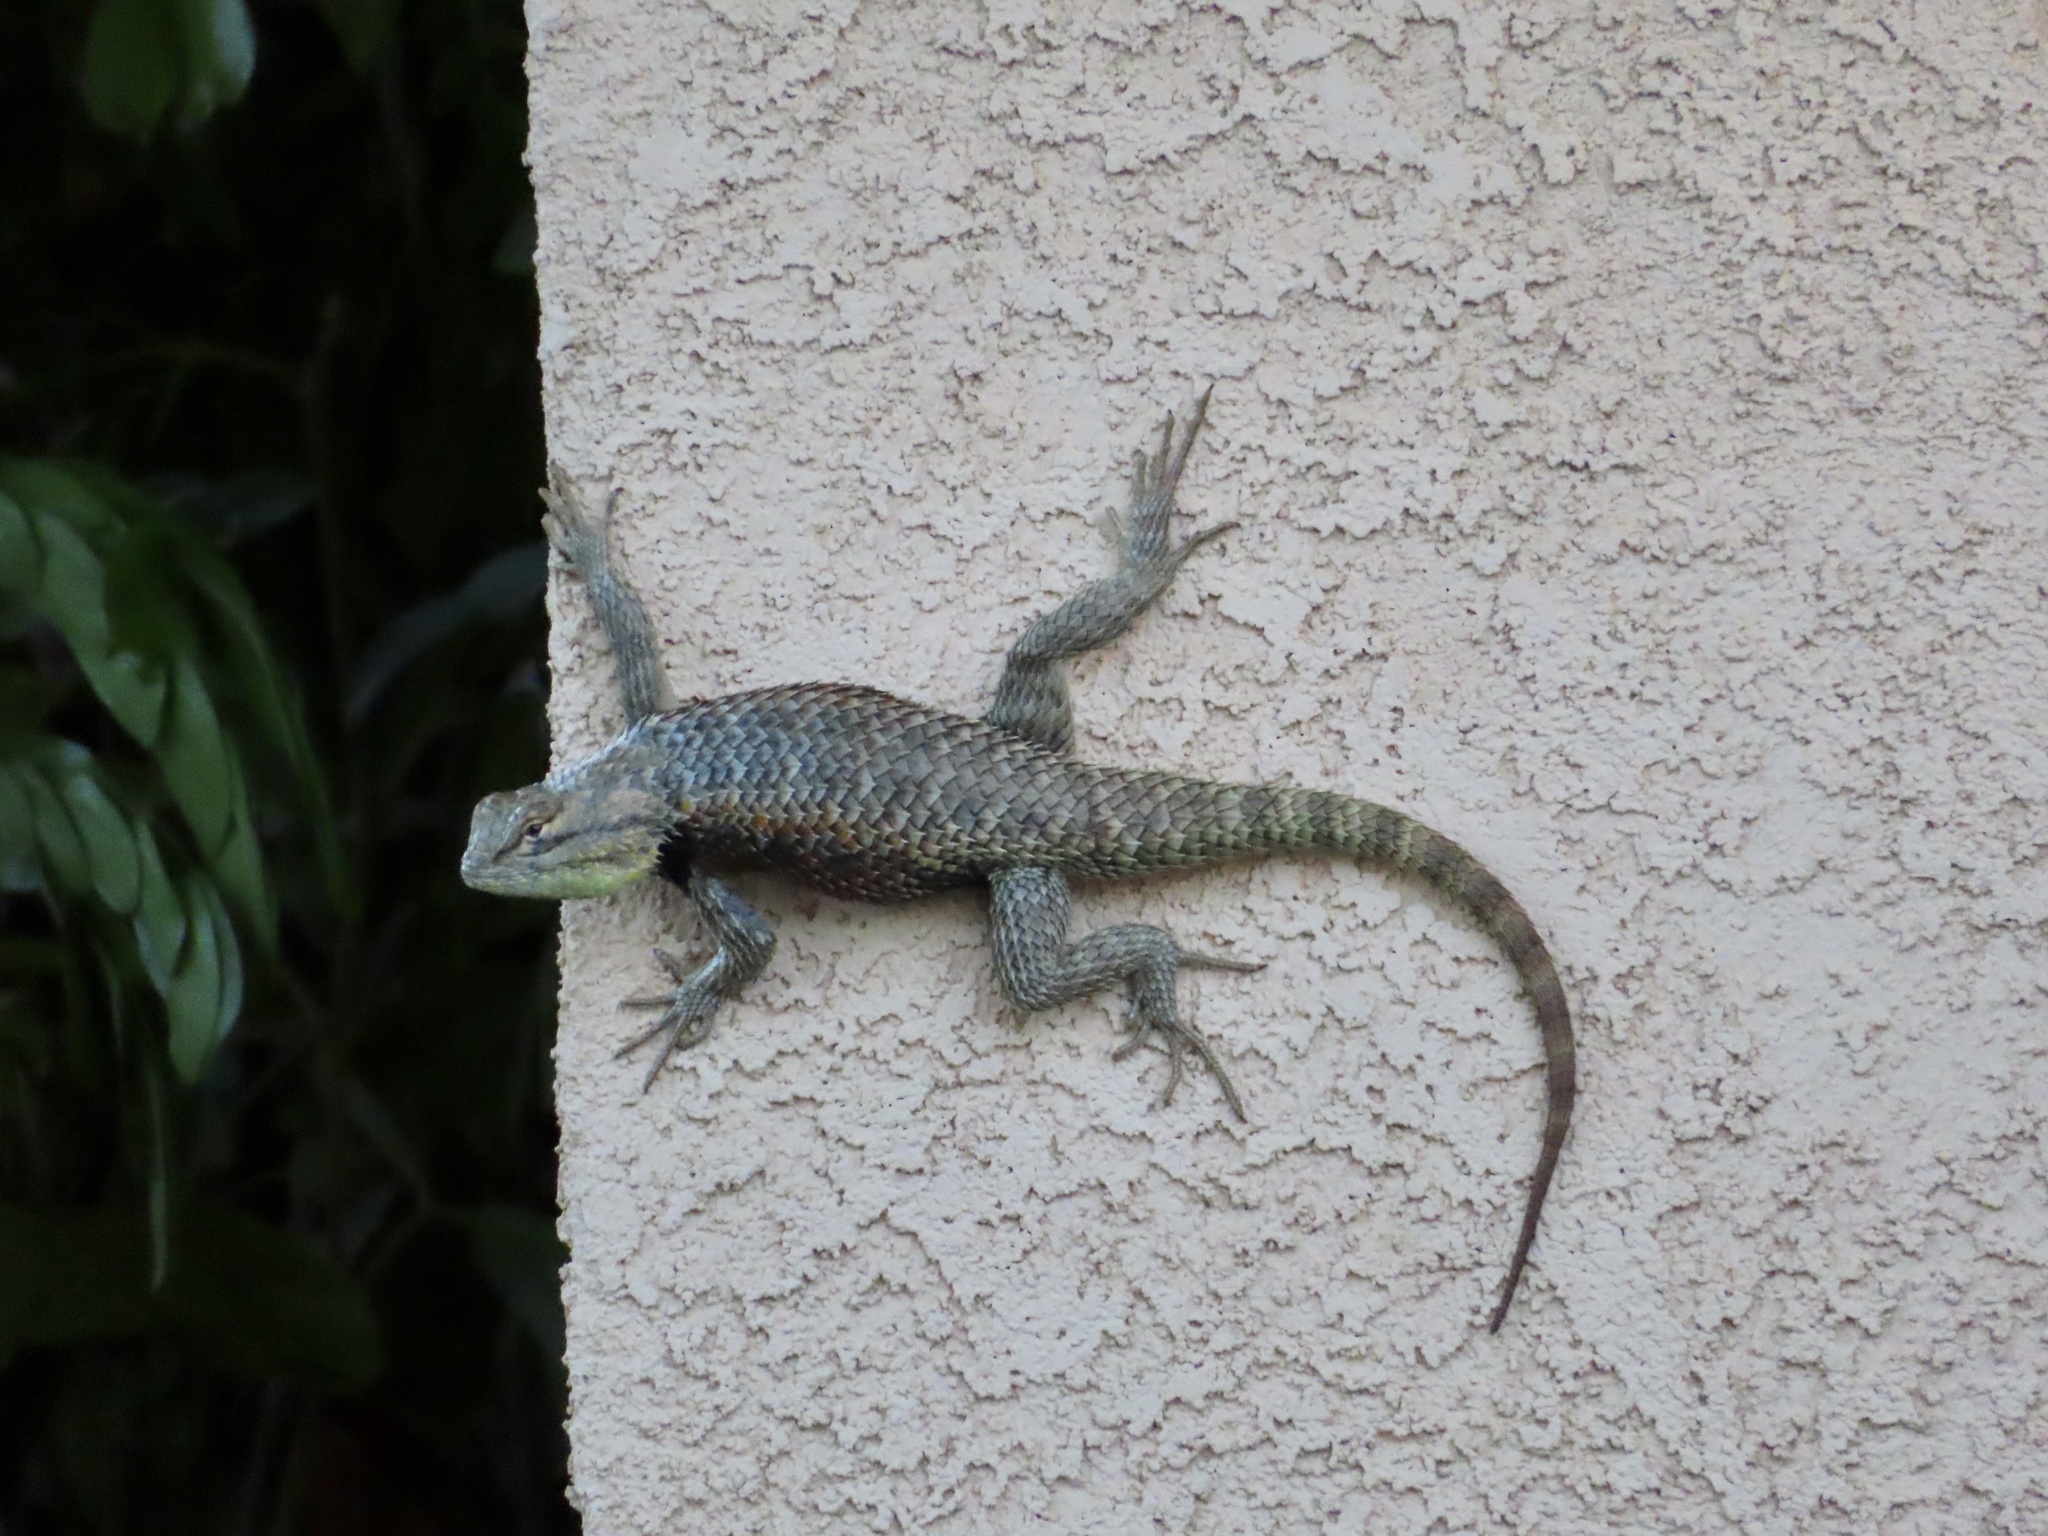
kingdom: Animalia
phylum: Chordata
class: Squamata
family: Phrynosomatidae
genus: Sceloporus
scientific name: Sceloporus magister
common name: Desert spiny lizard
